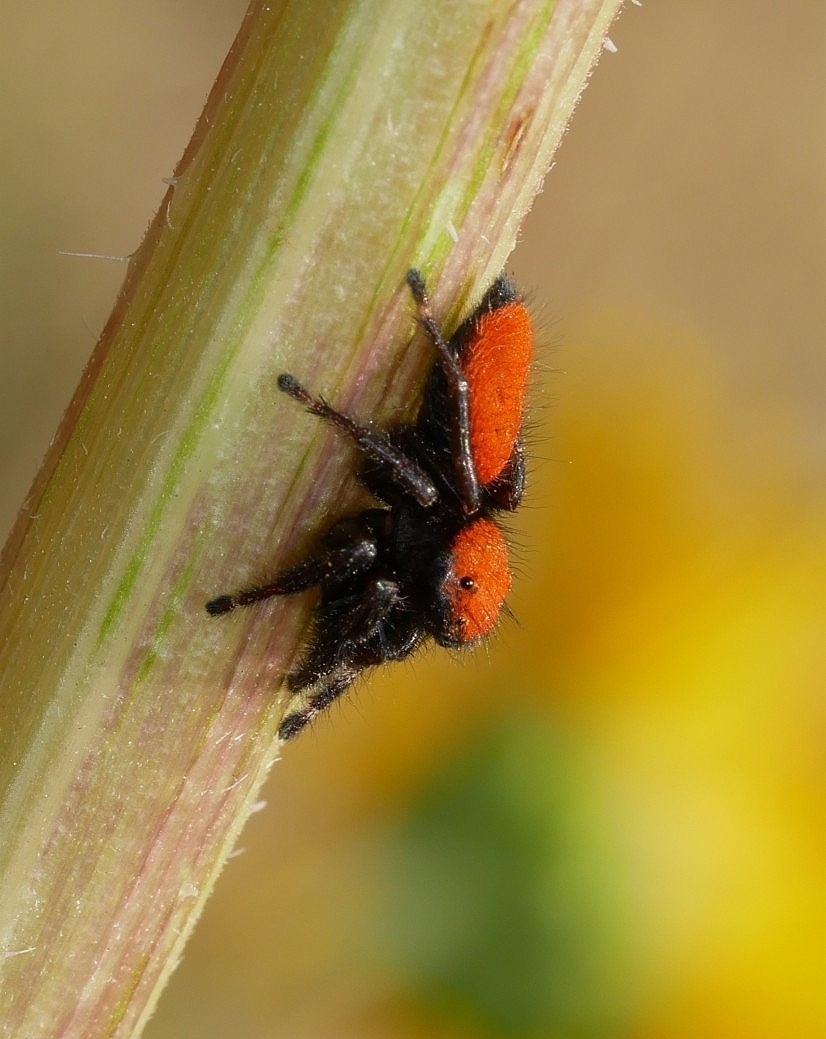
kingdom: Animalia
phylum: Arthropoda
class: Arachnida
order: Araneae
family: Salticidae
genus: Phidippus
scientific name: Phidippus apacheanus
